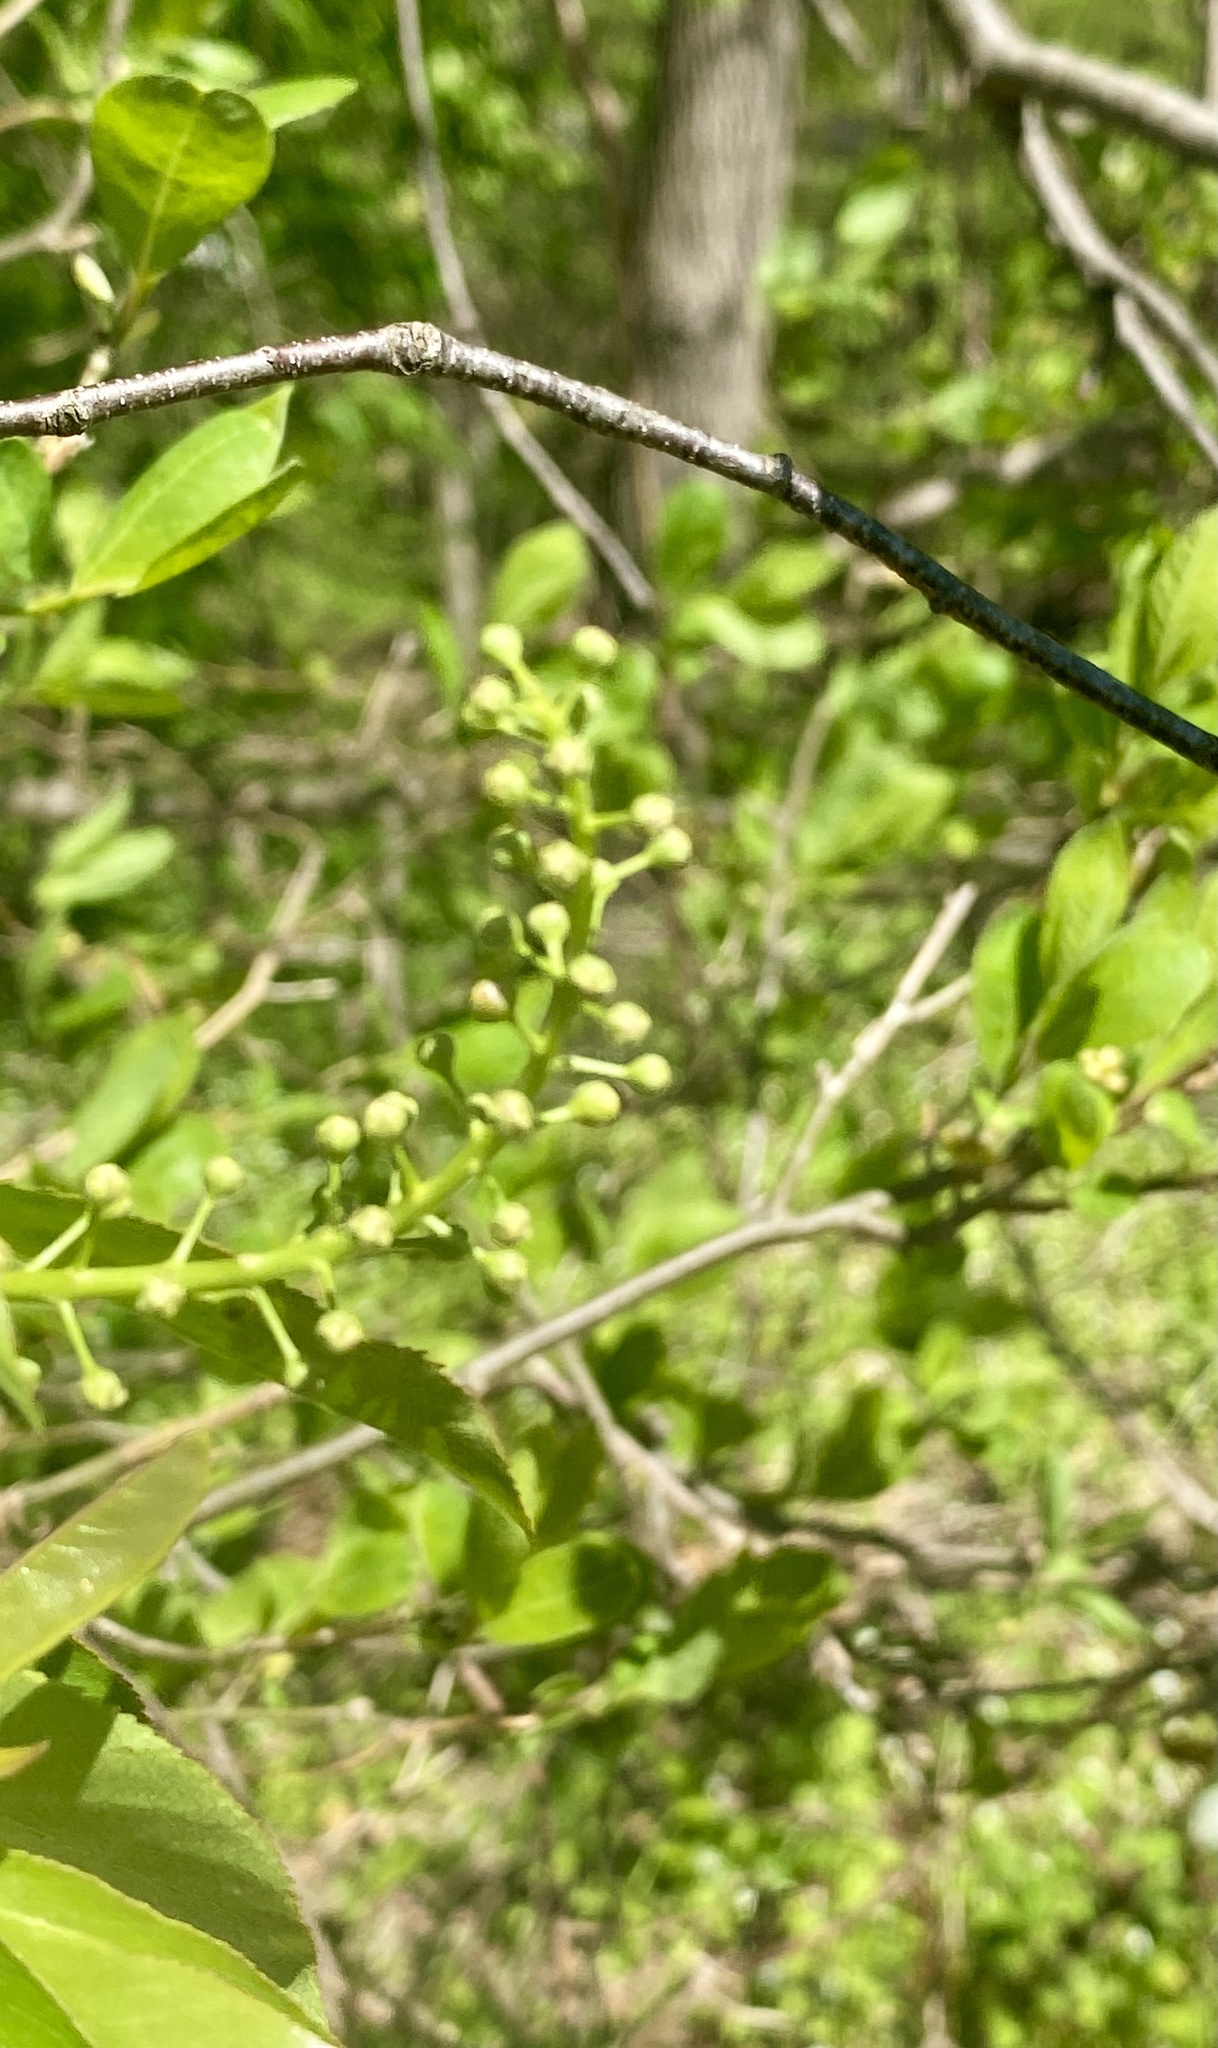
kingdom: Plantae
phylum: Tracheophyta
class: Magnoliopsida
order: Rosales
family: Rosaceae
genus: Prunus
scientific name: Prunus serotina
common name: Black cherry
